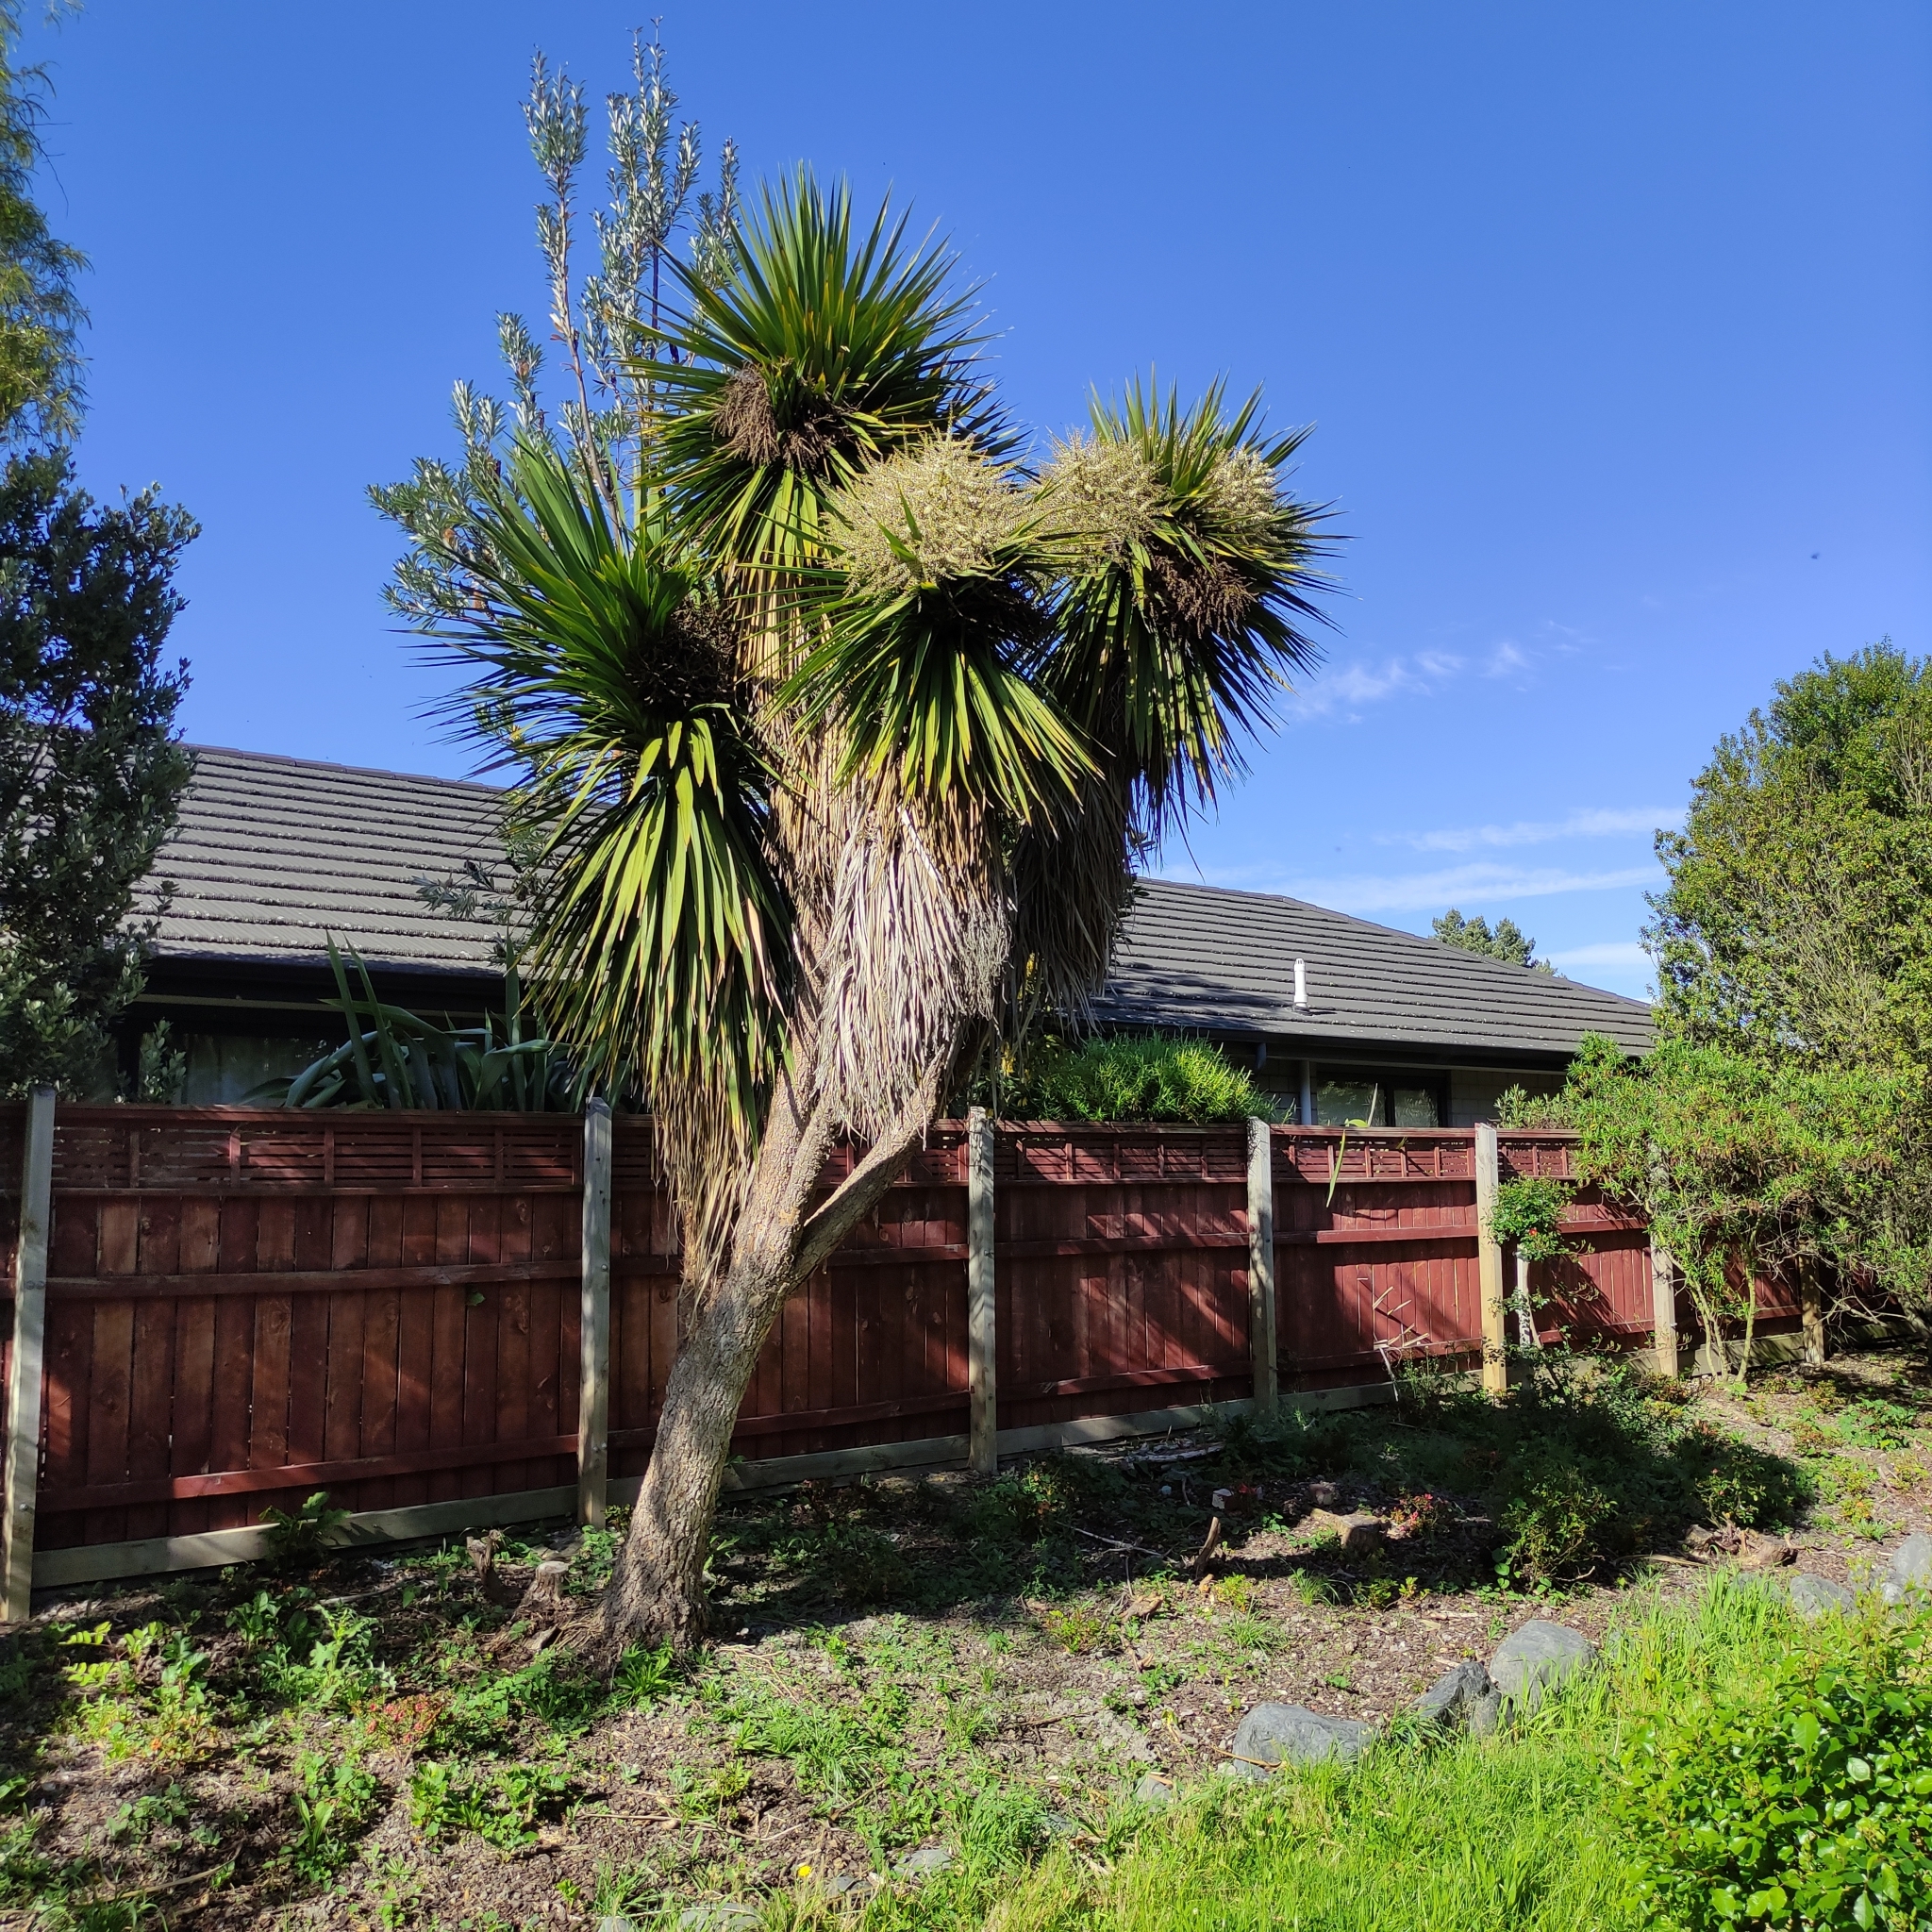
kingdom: Plantae
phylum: Tracheophyta
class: Liliopsida
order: Asparagales
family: Asparagaceae
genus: Cordyline
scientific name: Cordyline australis
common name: Cabbage-palm
